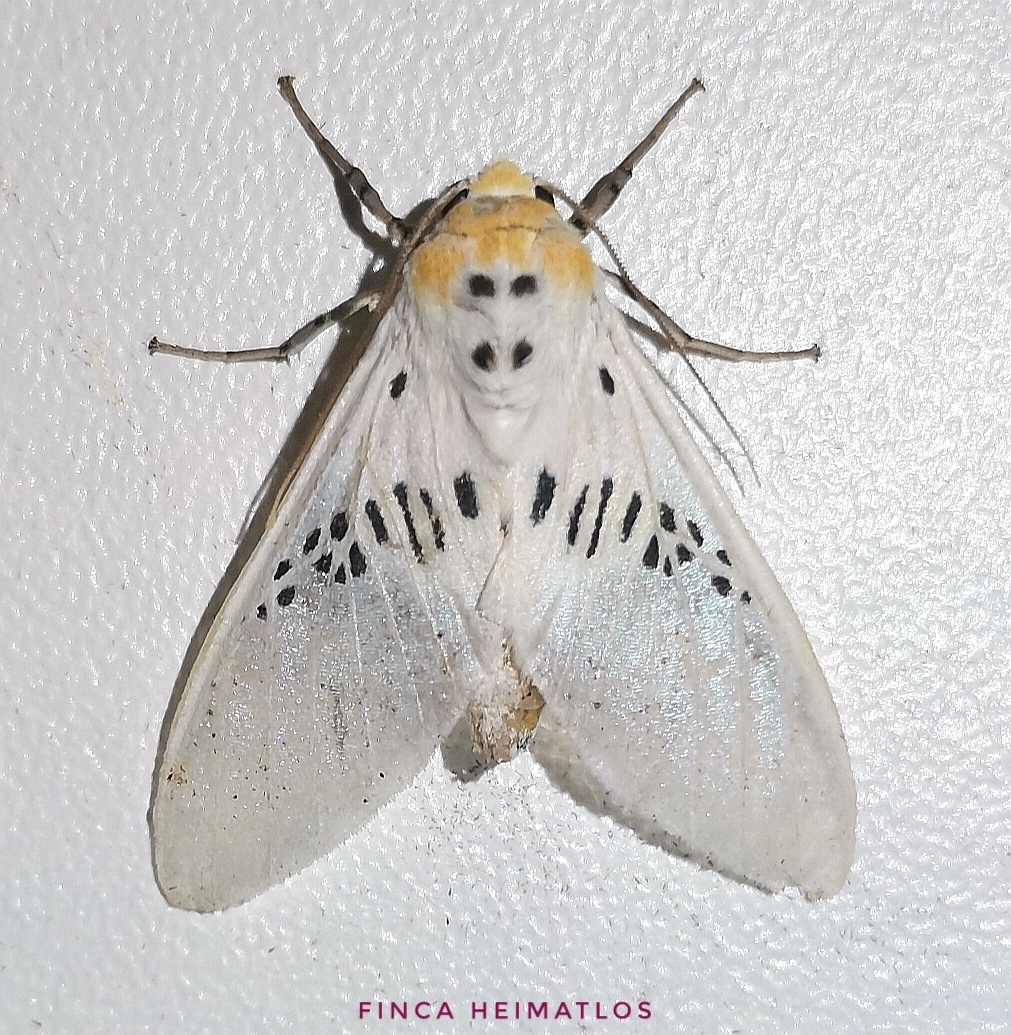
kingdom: Animalia
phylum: Arthropoda
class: Insecta
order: Lepidoptera
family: Erebidae
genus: Idalus
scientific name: Idalus fasciipuncta
